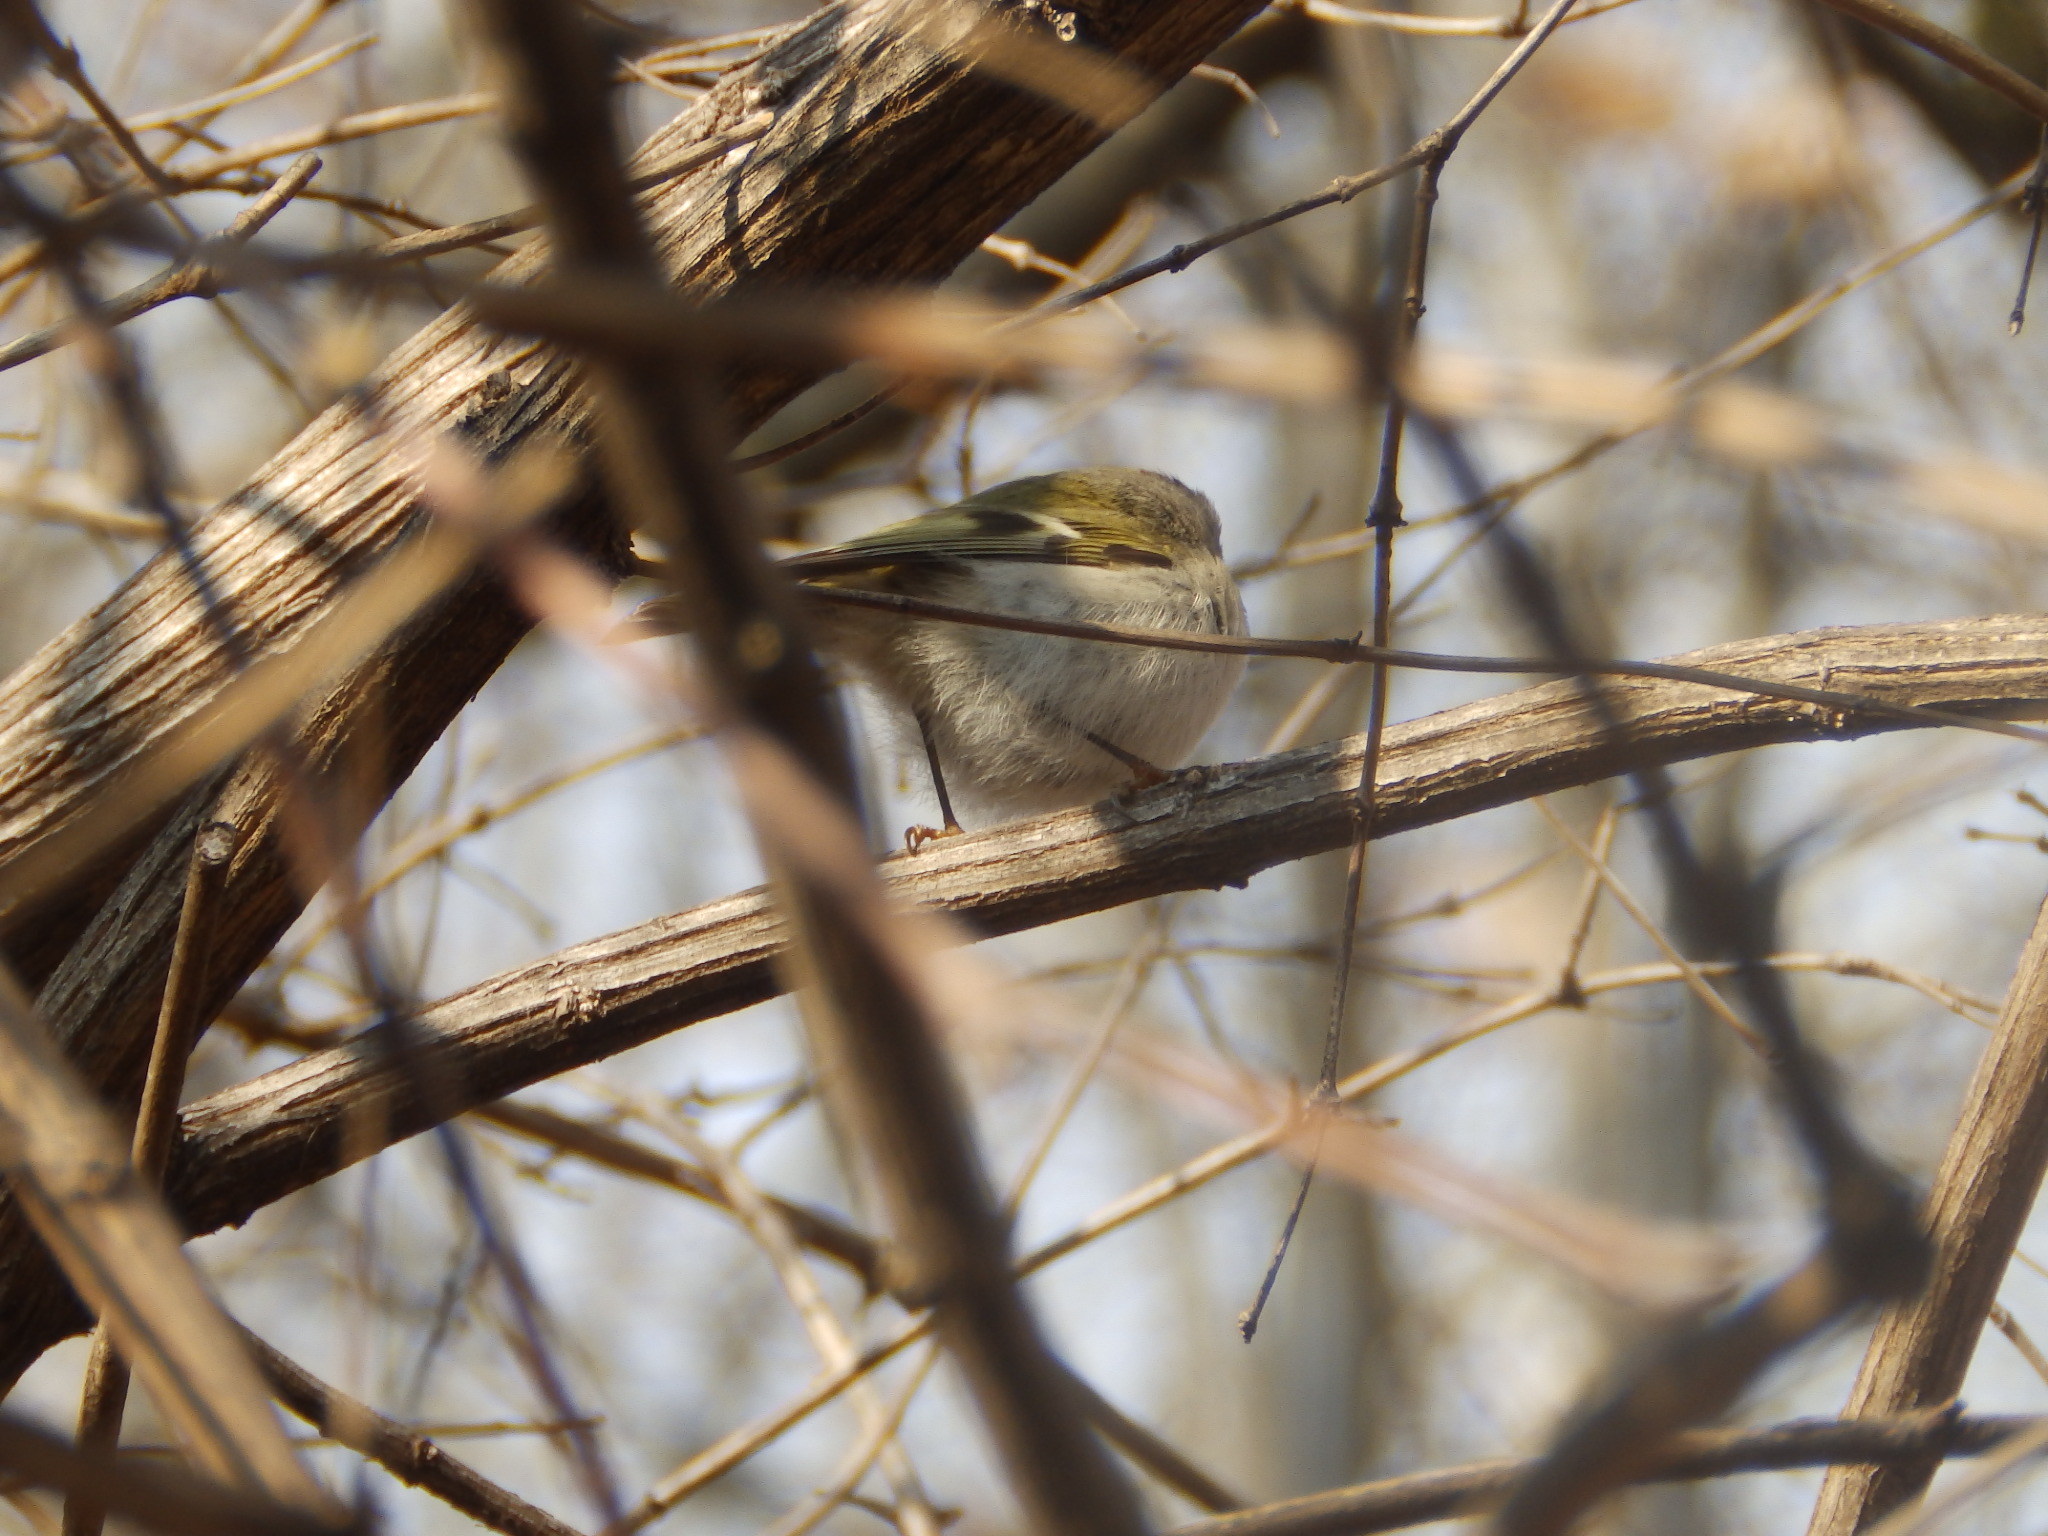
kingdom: Animalia
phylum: Chordata
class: Aves
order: Passeriformes
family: Regulidae
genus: Regulus
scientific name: Regulus satrapa
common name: Golden-crowned kinglet
